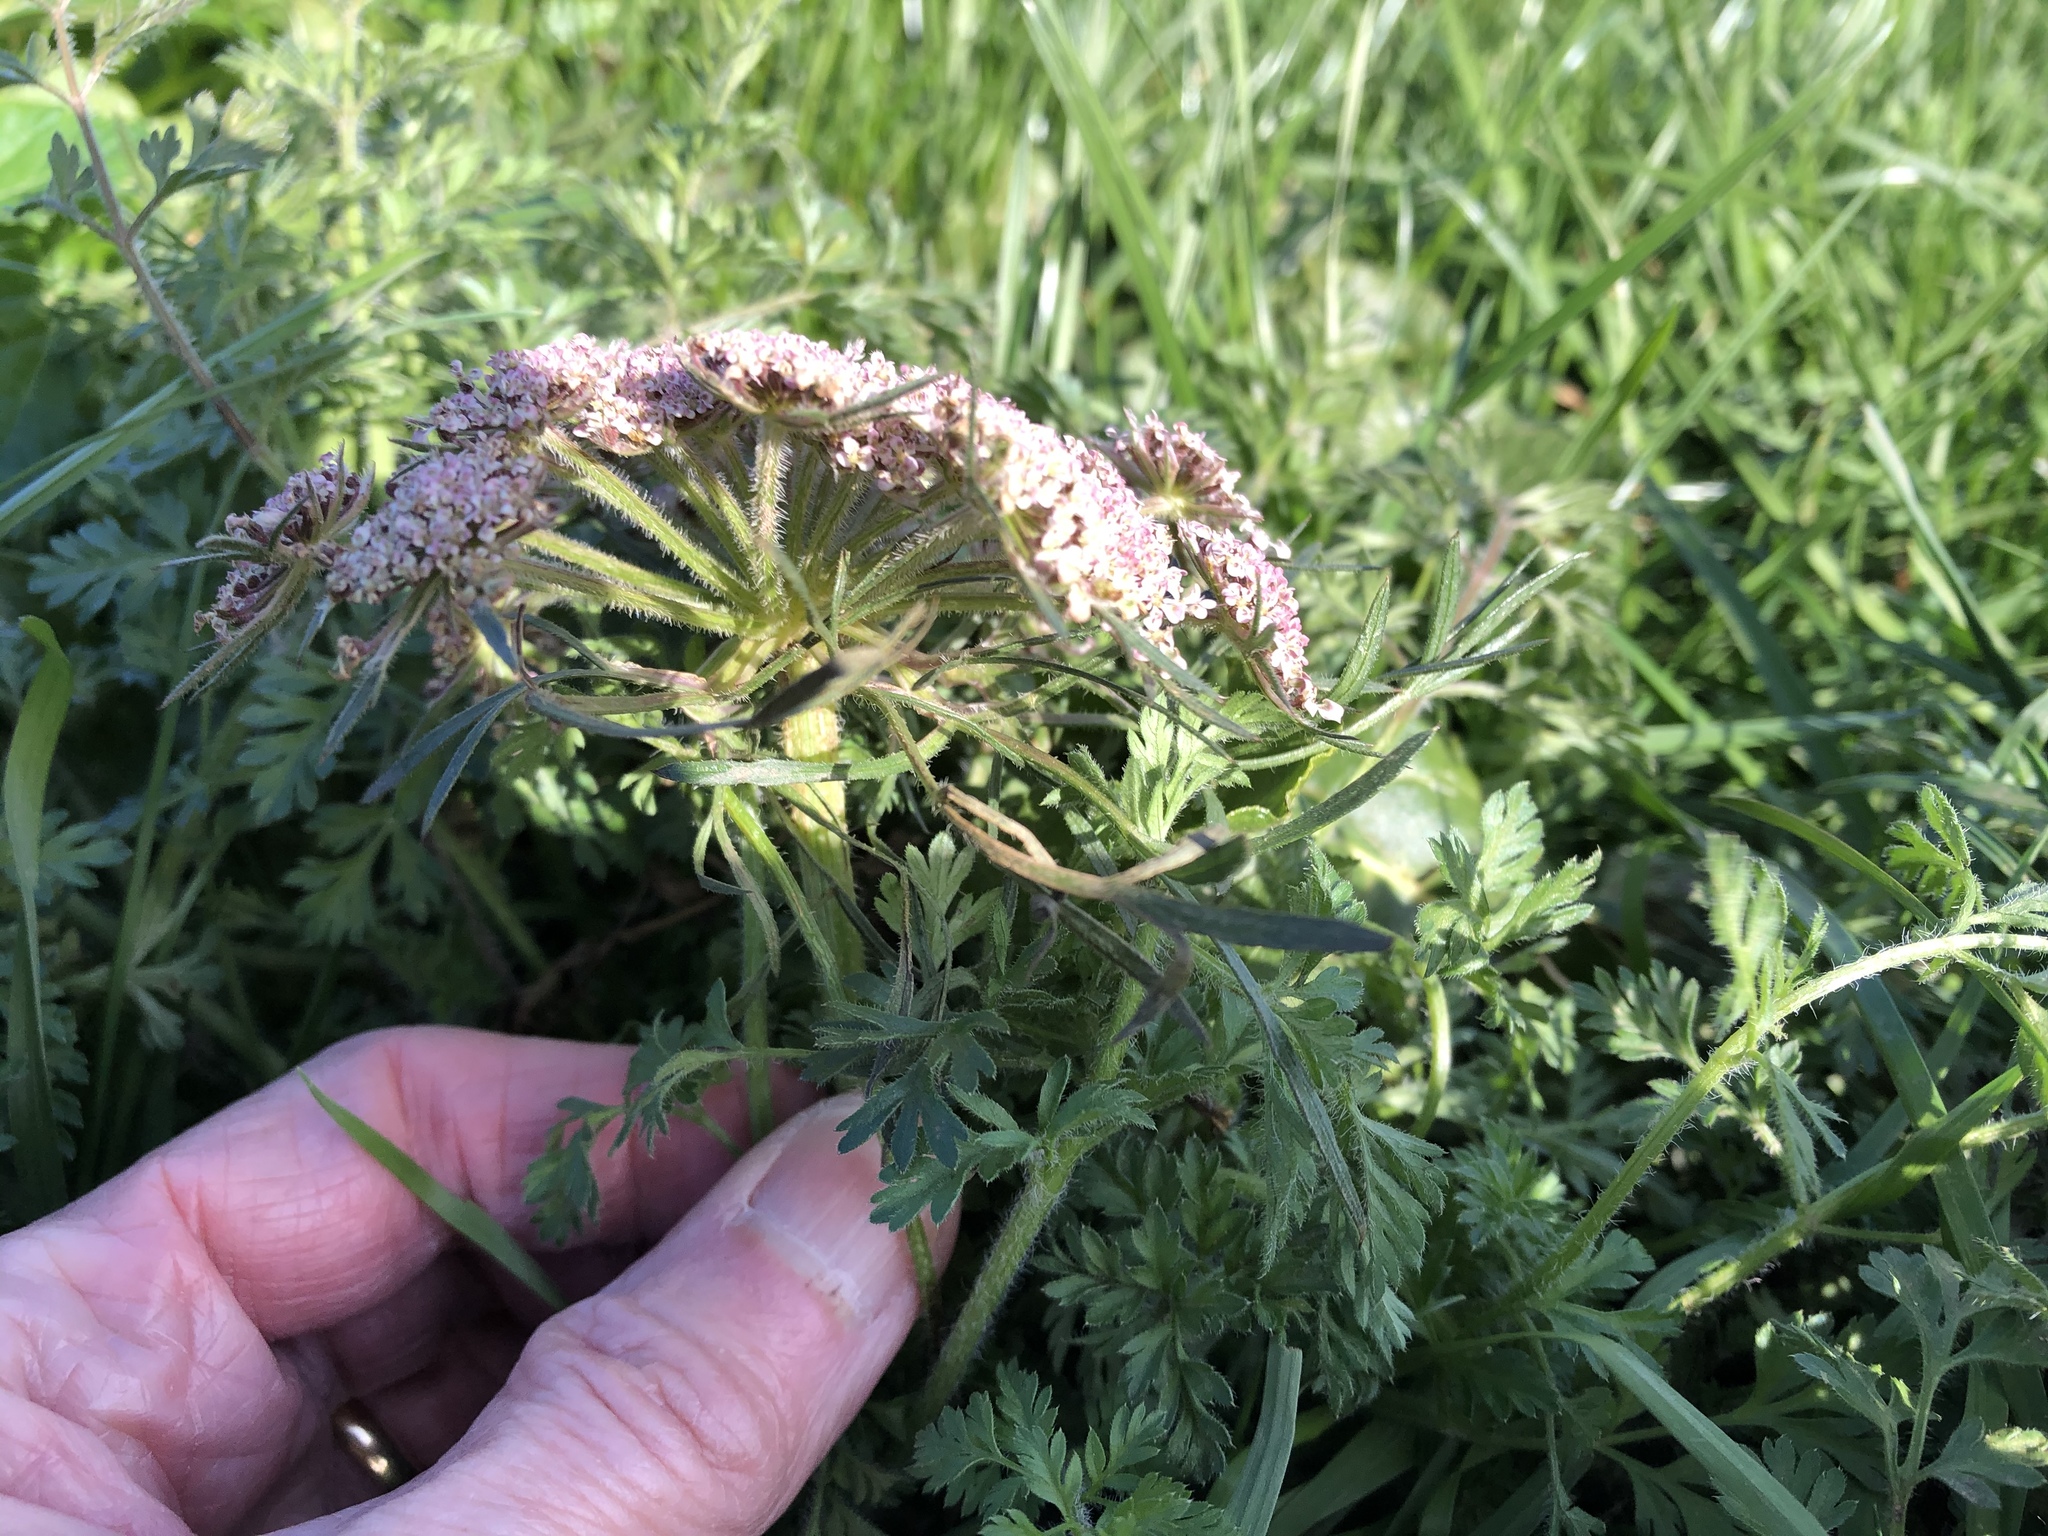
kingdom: Plantae
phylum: Tracheophyta
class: Magnoliopsida
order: Apiales
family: Apiaceae
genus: Daucus
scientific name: Daucus carota
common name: Wild carrot
